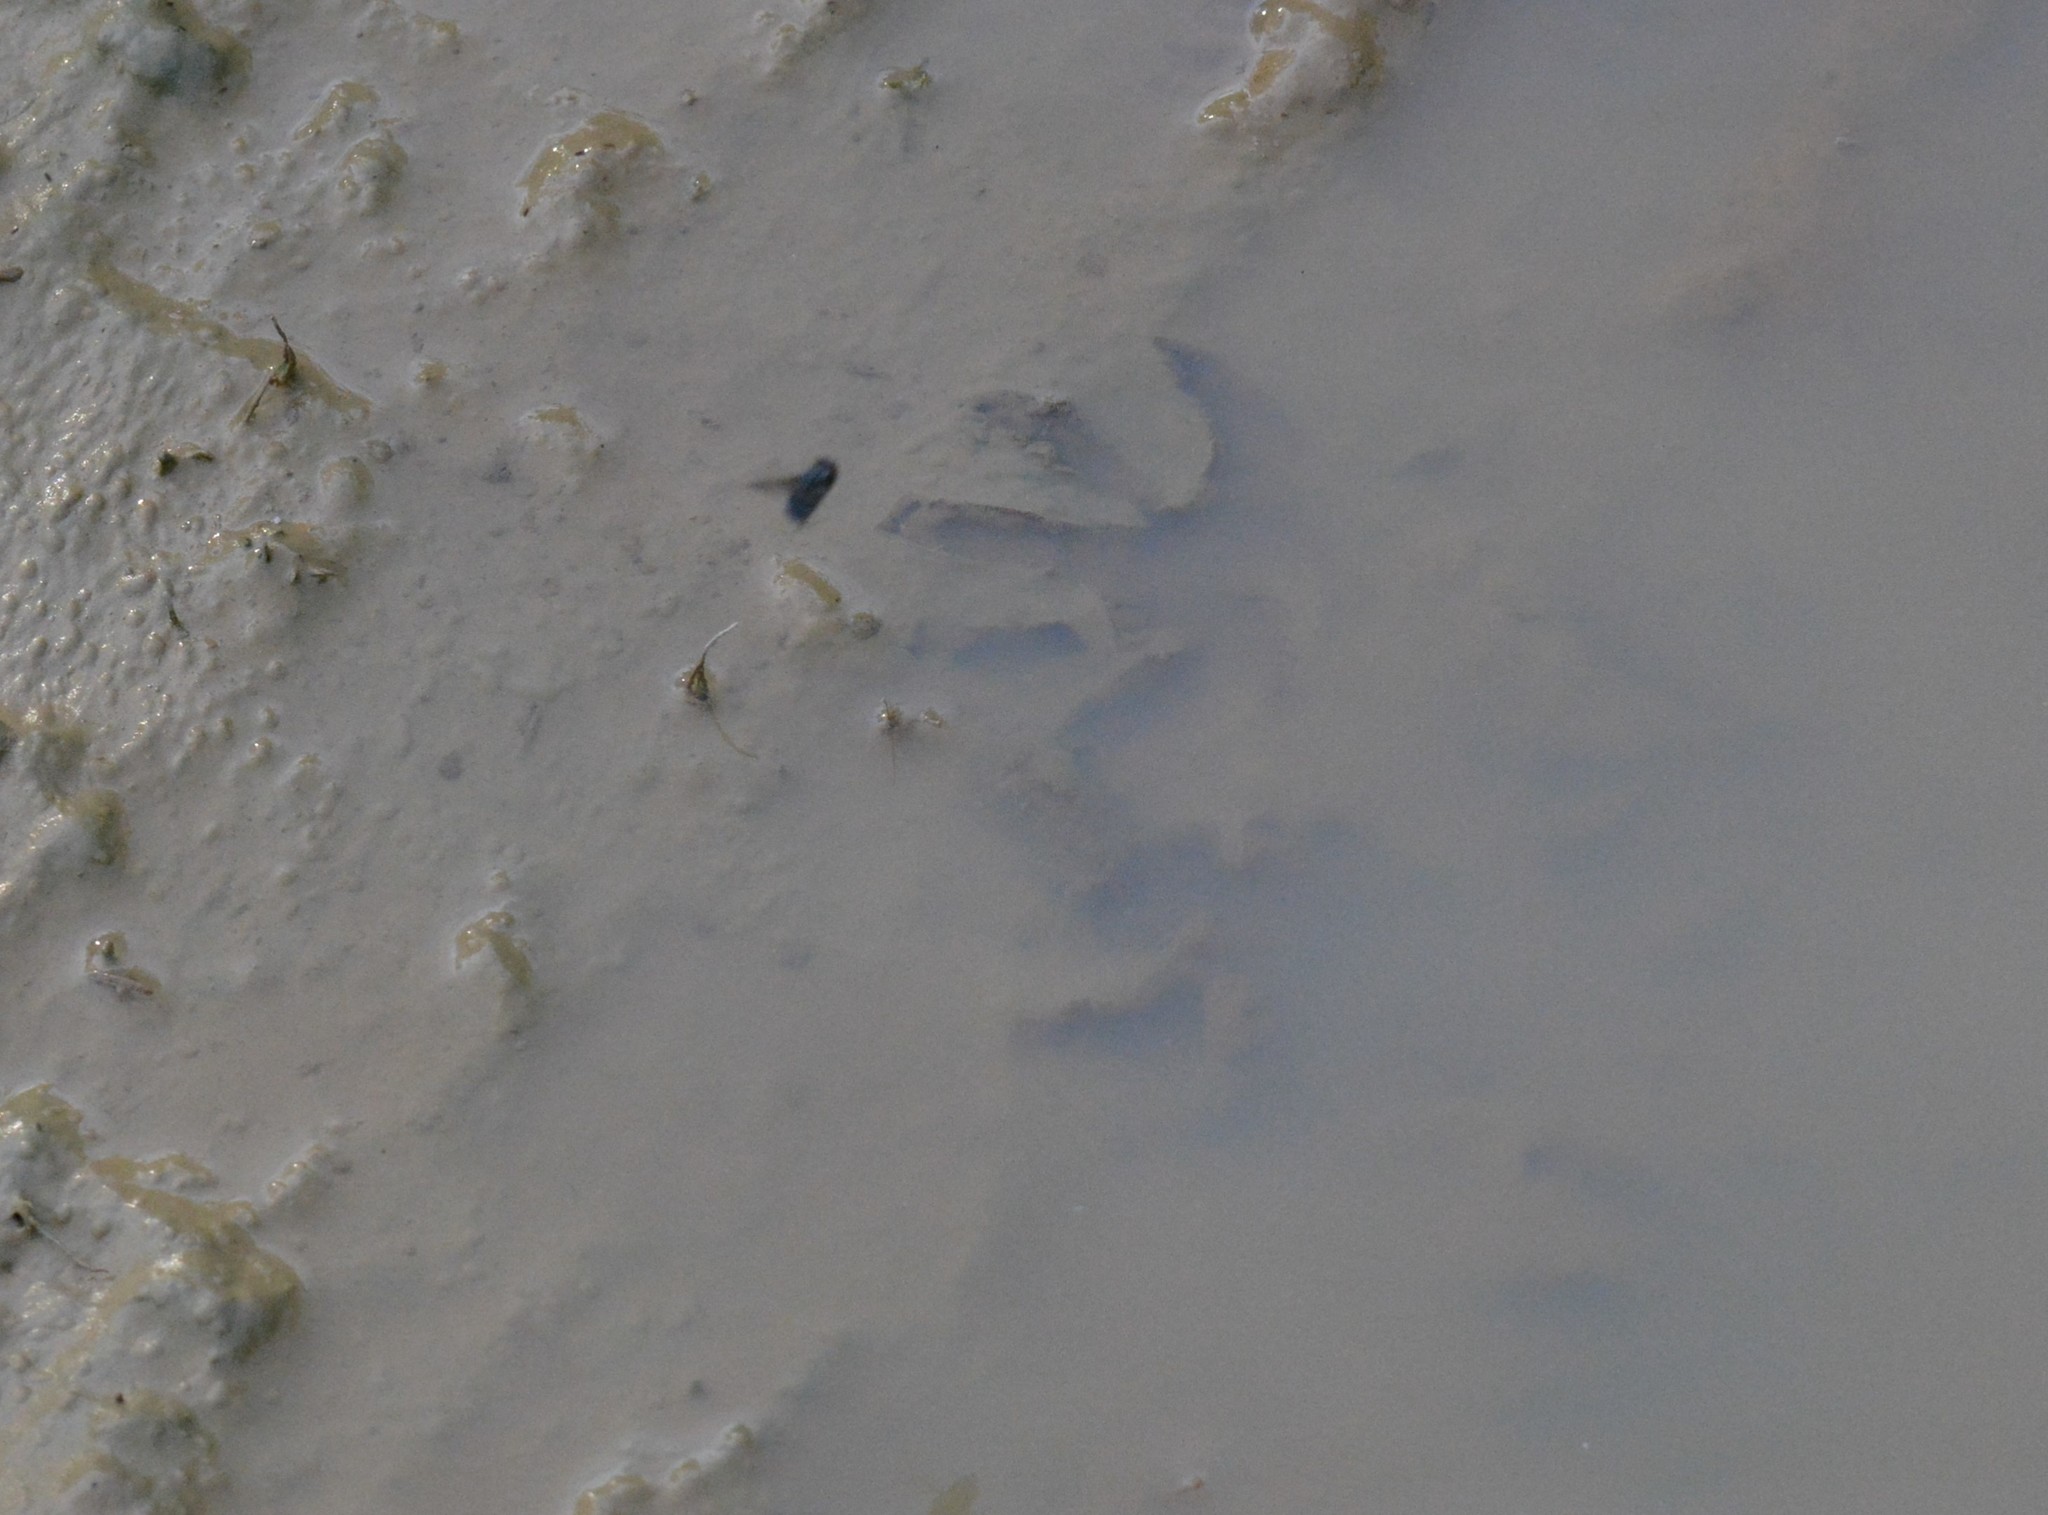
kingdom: Animalia
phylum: Chordata
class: Mammalia
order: Carnivora
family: Procyonidae
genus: Procyon
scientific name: Procyon lotor
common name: Raccoon
